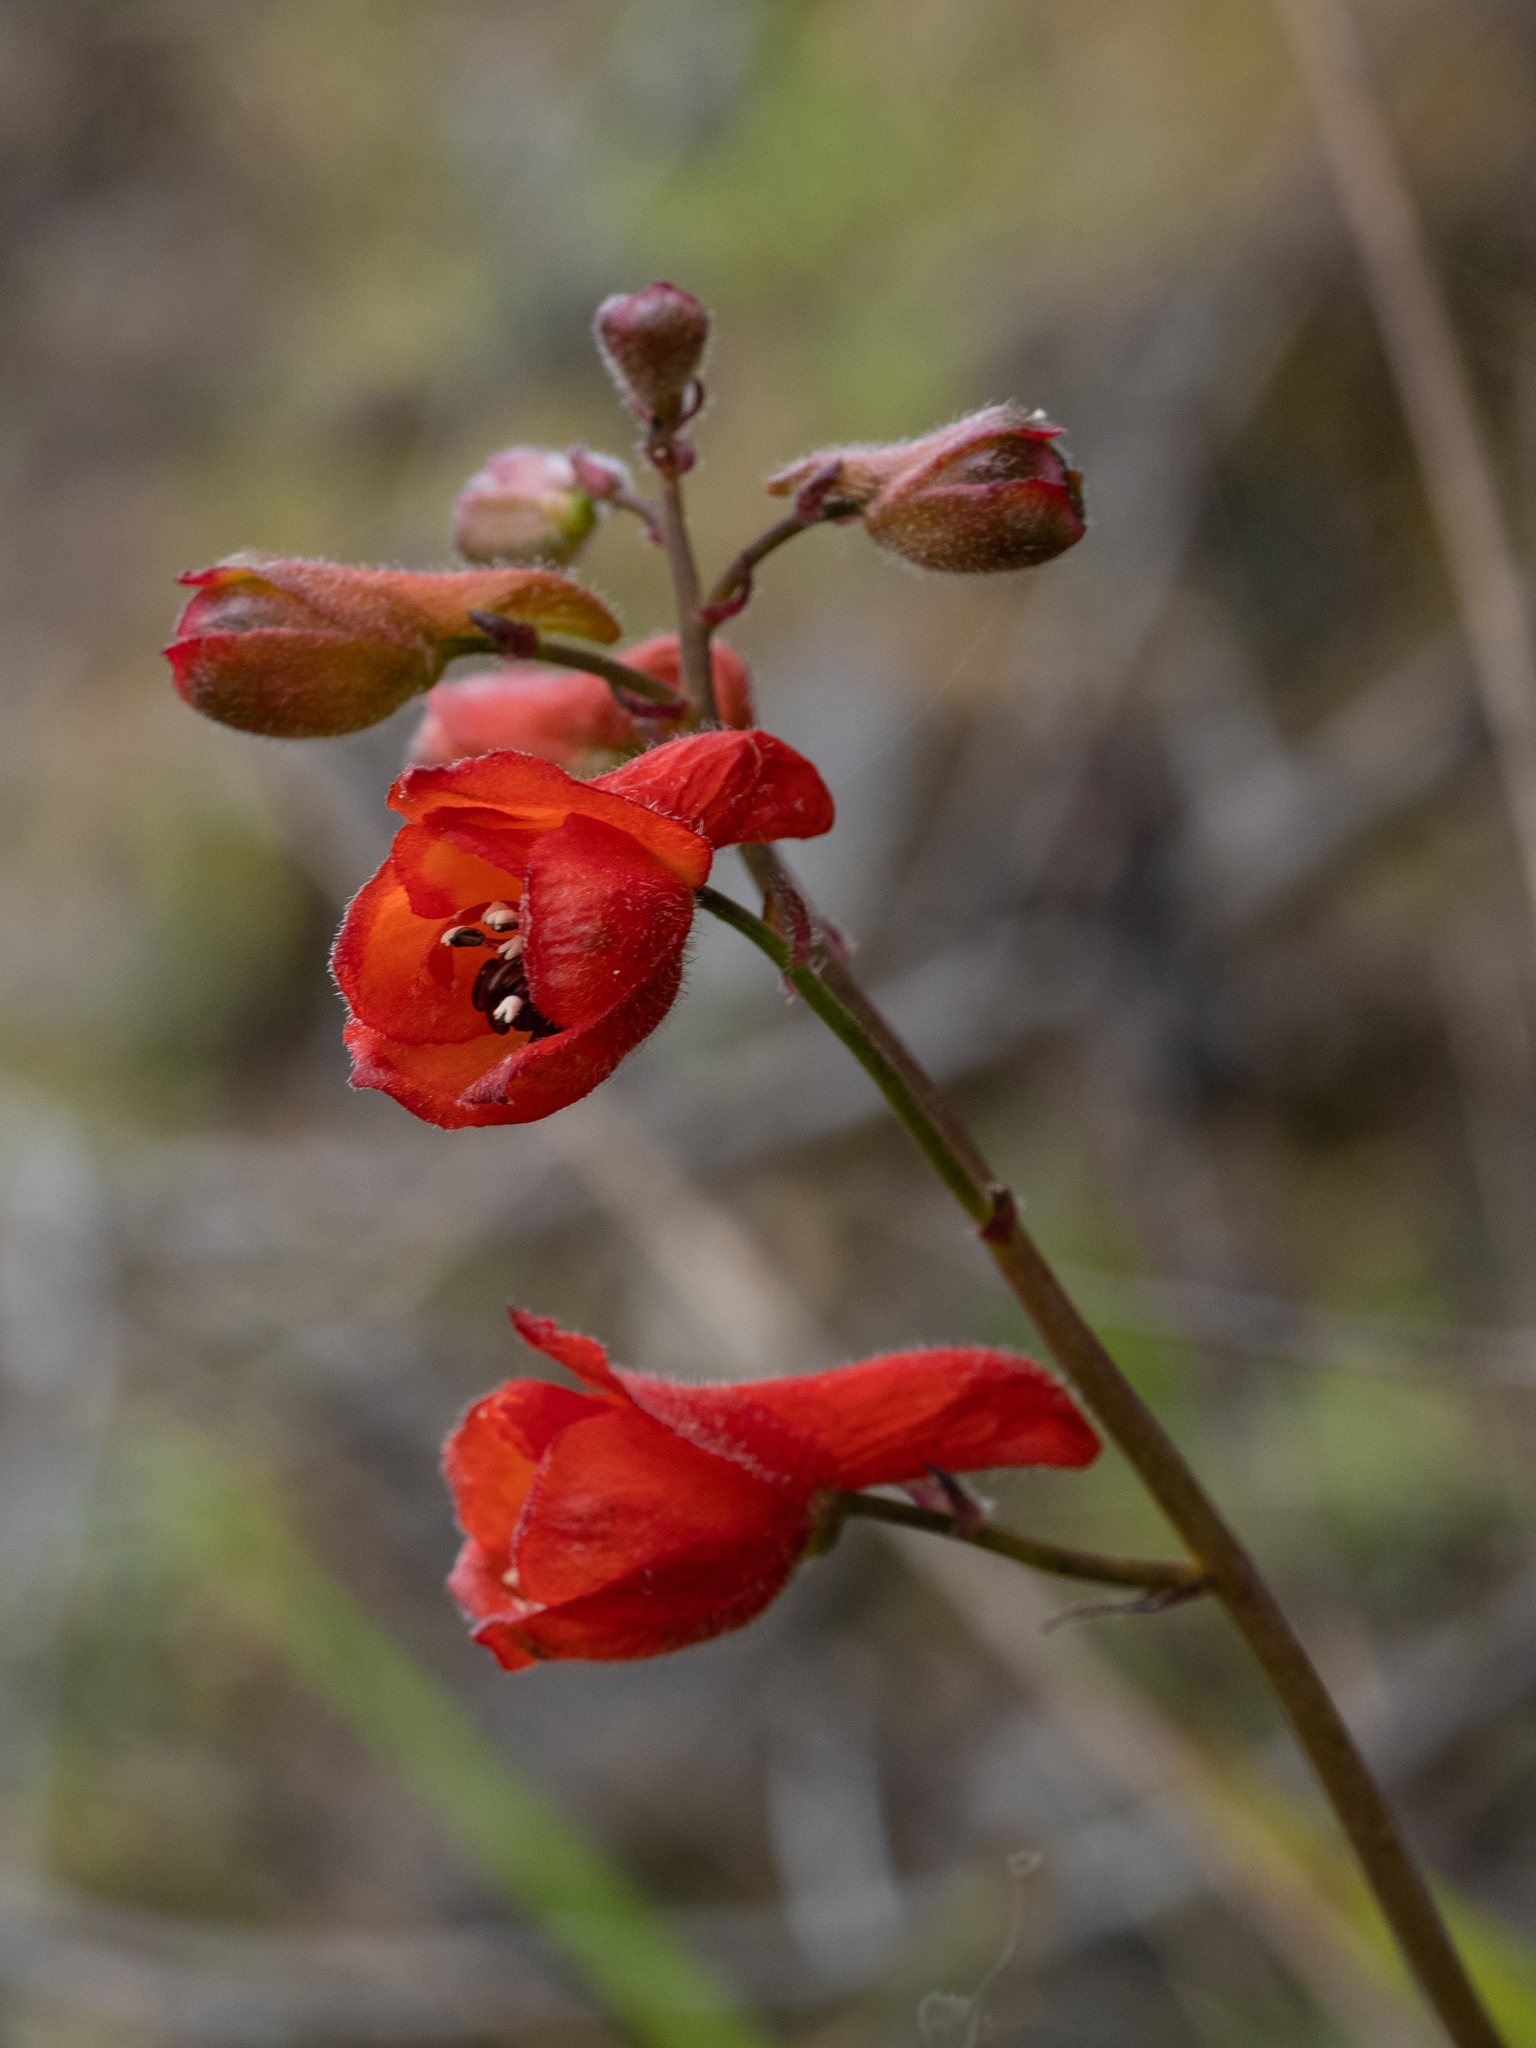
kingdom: Plantae
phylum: Tracheophyta
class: Magnoliopsida
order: Ranunculales
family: Ranunculaceae
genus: Delphinium
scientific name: Delphinium nudicaule
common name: Red larkspur
